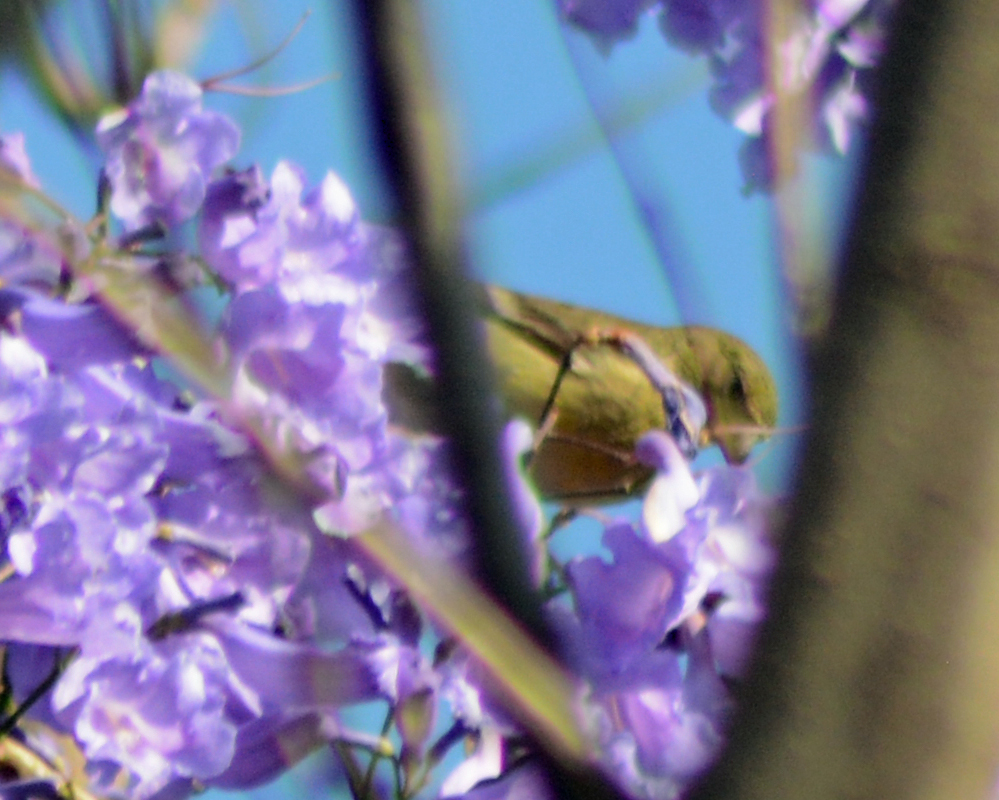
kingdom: Animalia
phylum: Chordata
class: Aves
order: Passeriformes
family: Fringillidae
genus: Spinus
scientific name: Spinus psaltria
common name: Lesser goldfinch
